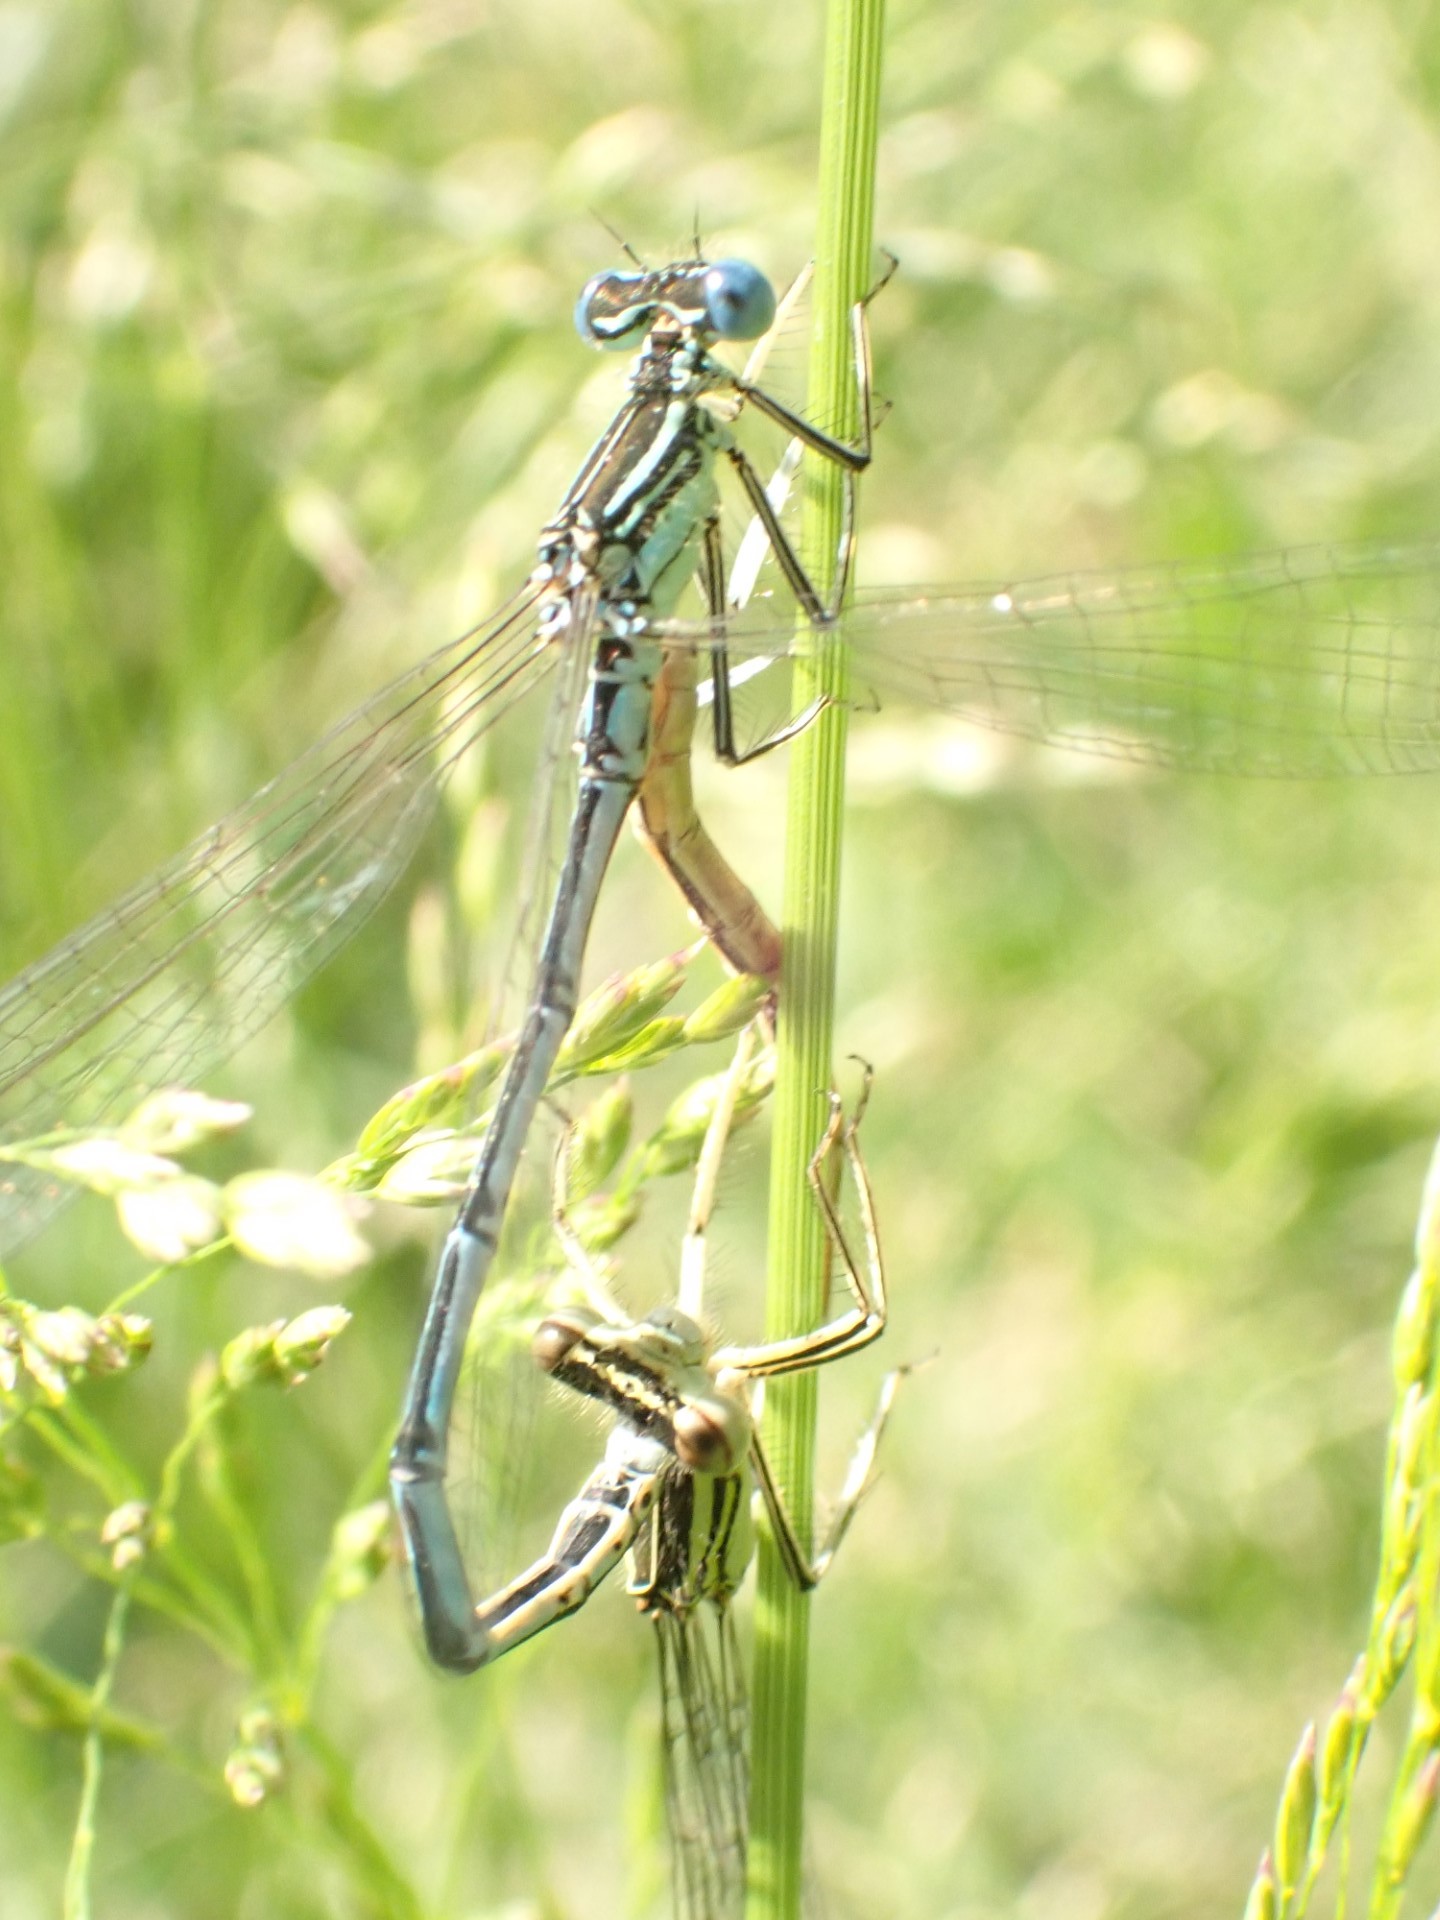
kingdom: Animalia
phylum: Arthropoda
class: Insecta
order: Odonata
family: Platycnemididae
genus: Platycnemis
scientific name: Platycnemis pennipes
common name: White-legged damselfly
